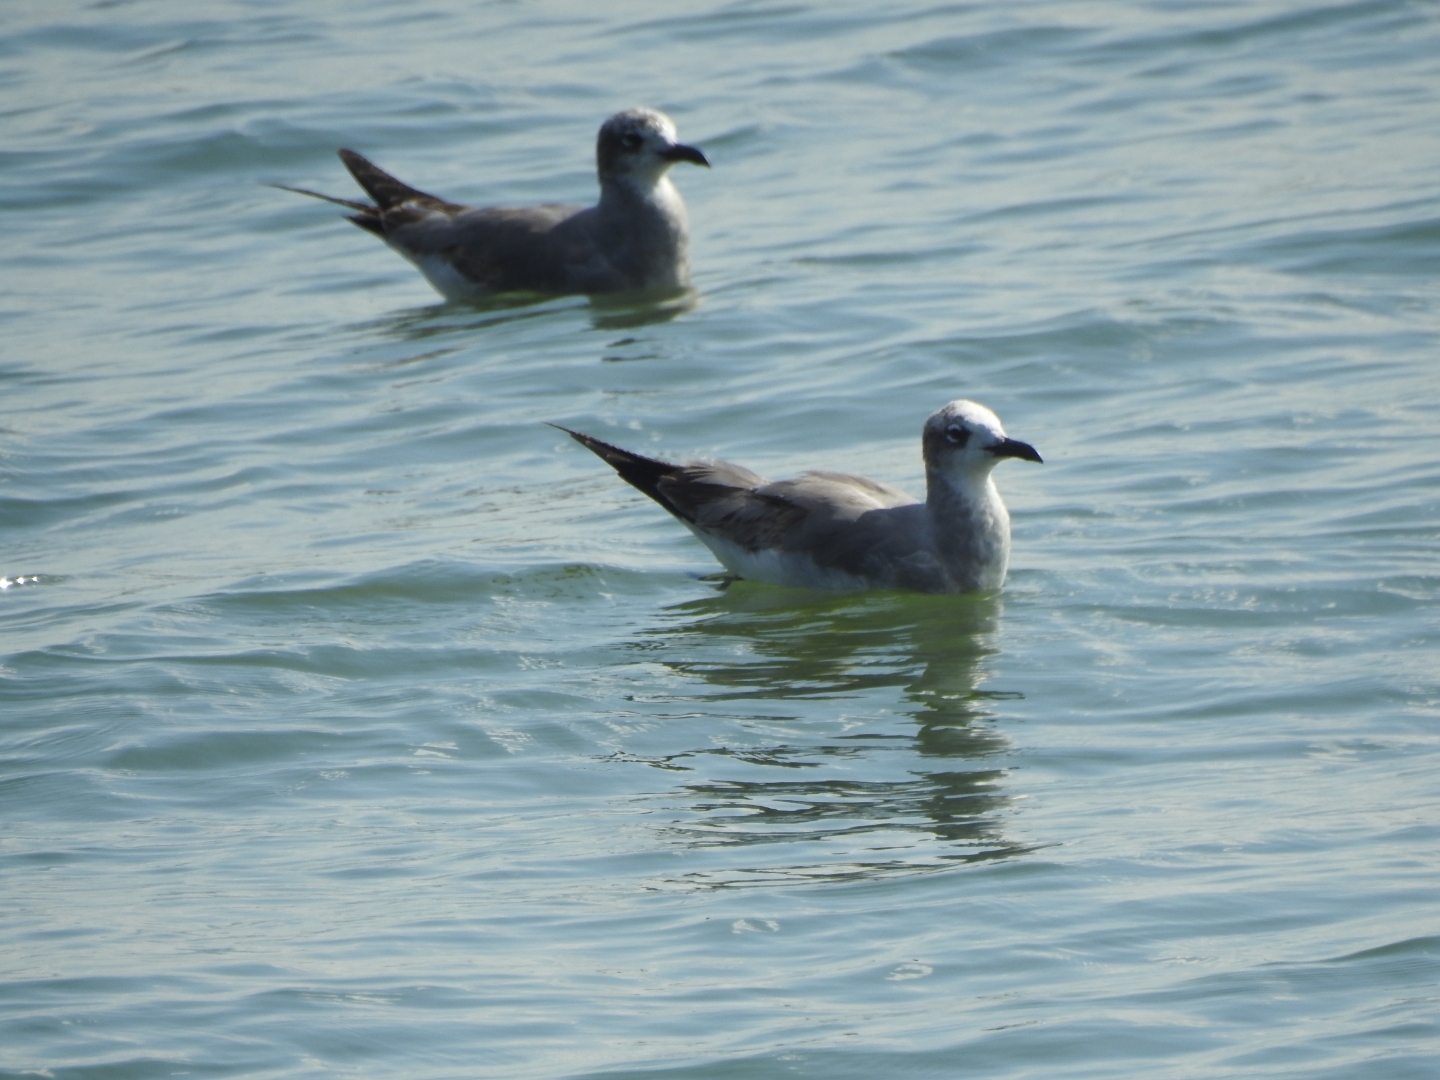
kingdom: Animalia
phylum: Chordata
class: Aves
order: Charadriiformes
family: Laridae
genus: Leucophaeus
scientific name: Leucophaeus atricilla
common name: Laughing gull
